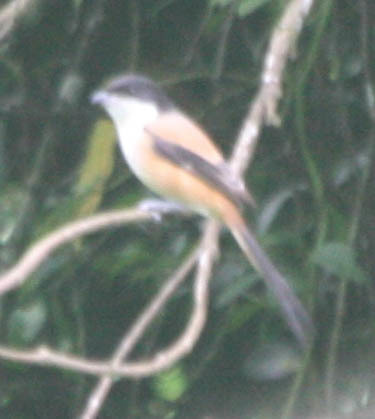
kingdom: Animalia
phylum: Chordata
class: Aves
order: Passeriformes
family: Laniidae
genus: Lanius
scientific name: Lanius schach
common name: Long-tailed shrike
